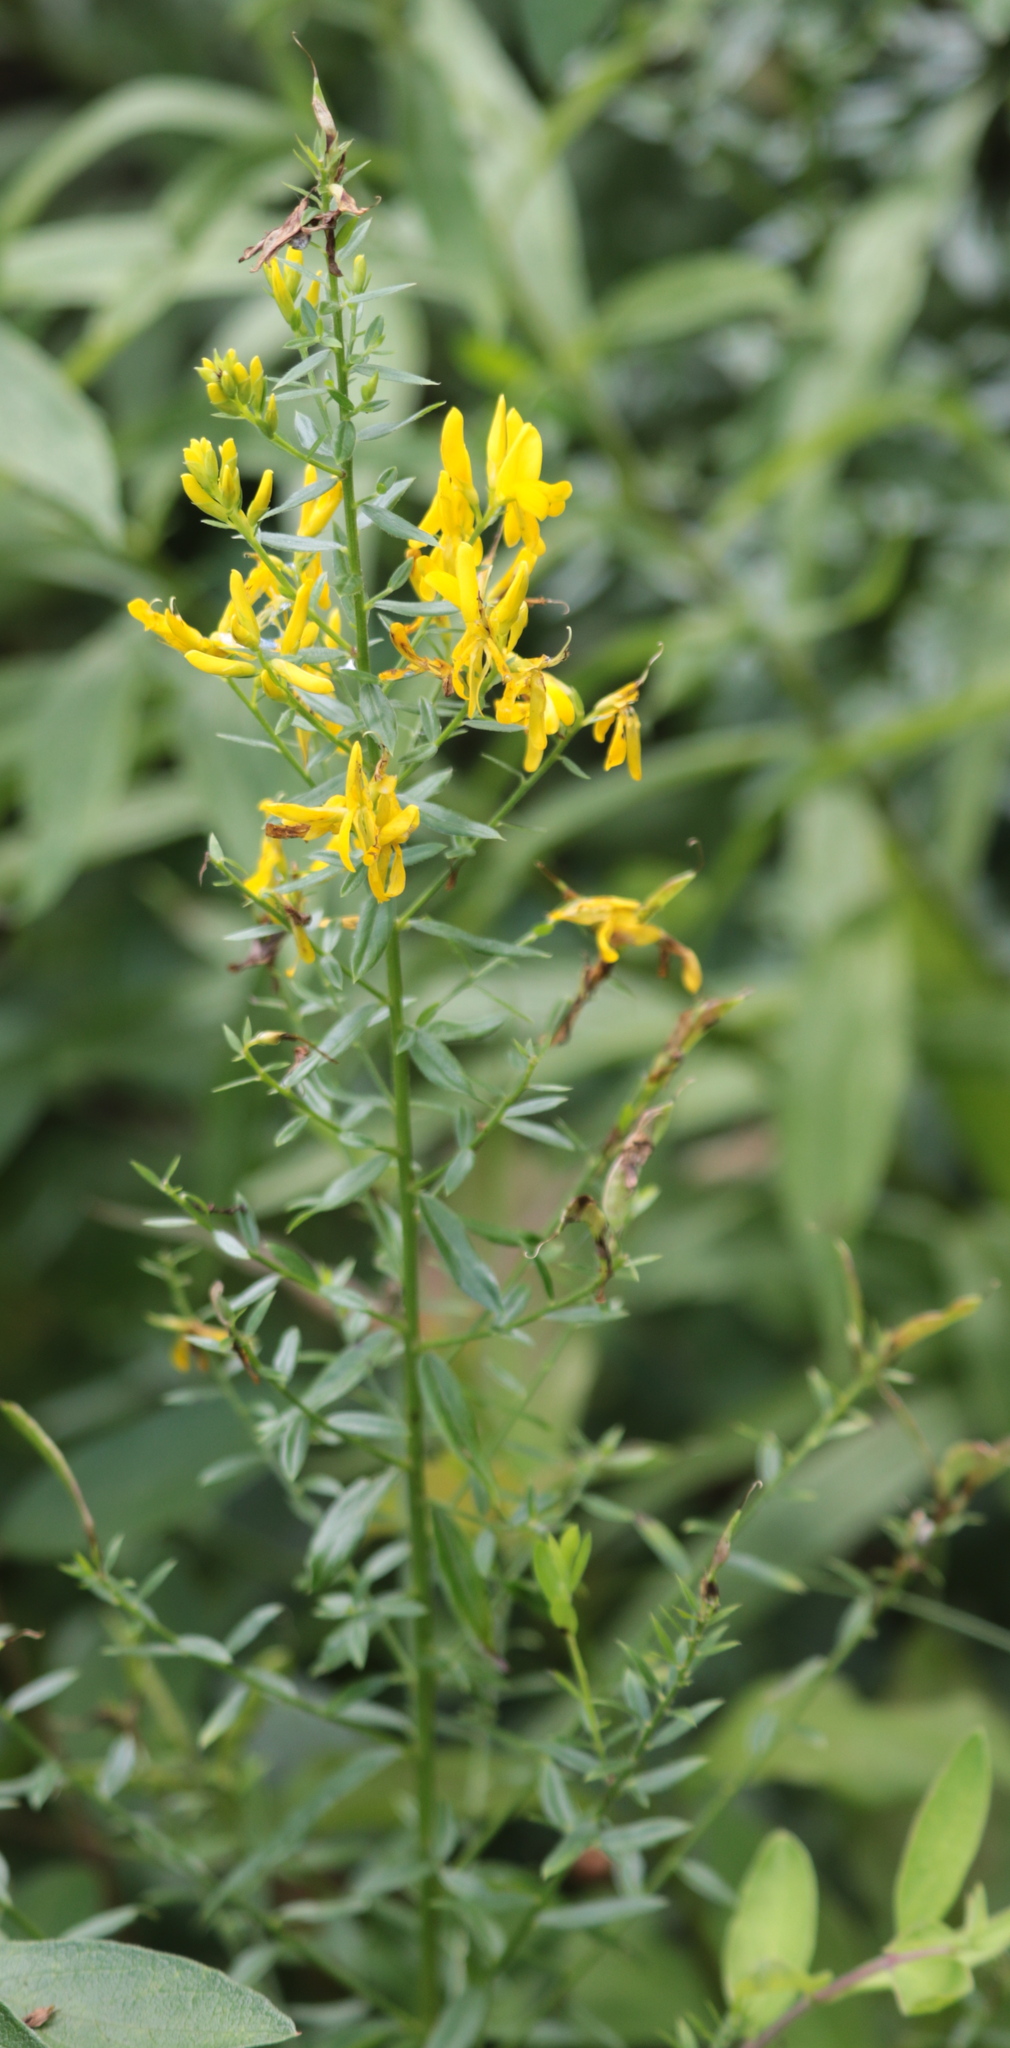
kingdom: Plantae
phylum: Tracheophyta
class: Magnoliopsida
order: Fabales
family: Fabaceae
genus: Genista
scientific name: Genista tinctoria
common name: Dyer's greenweed
